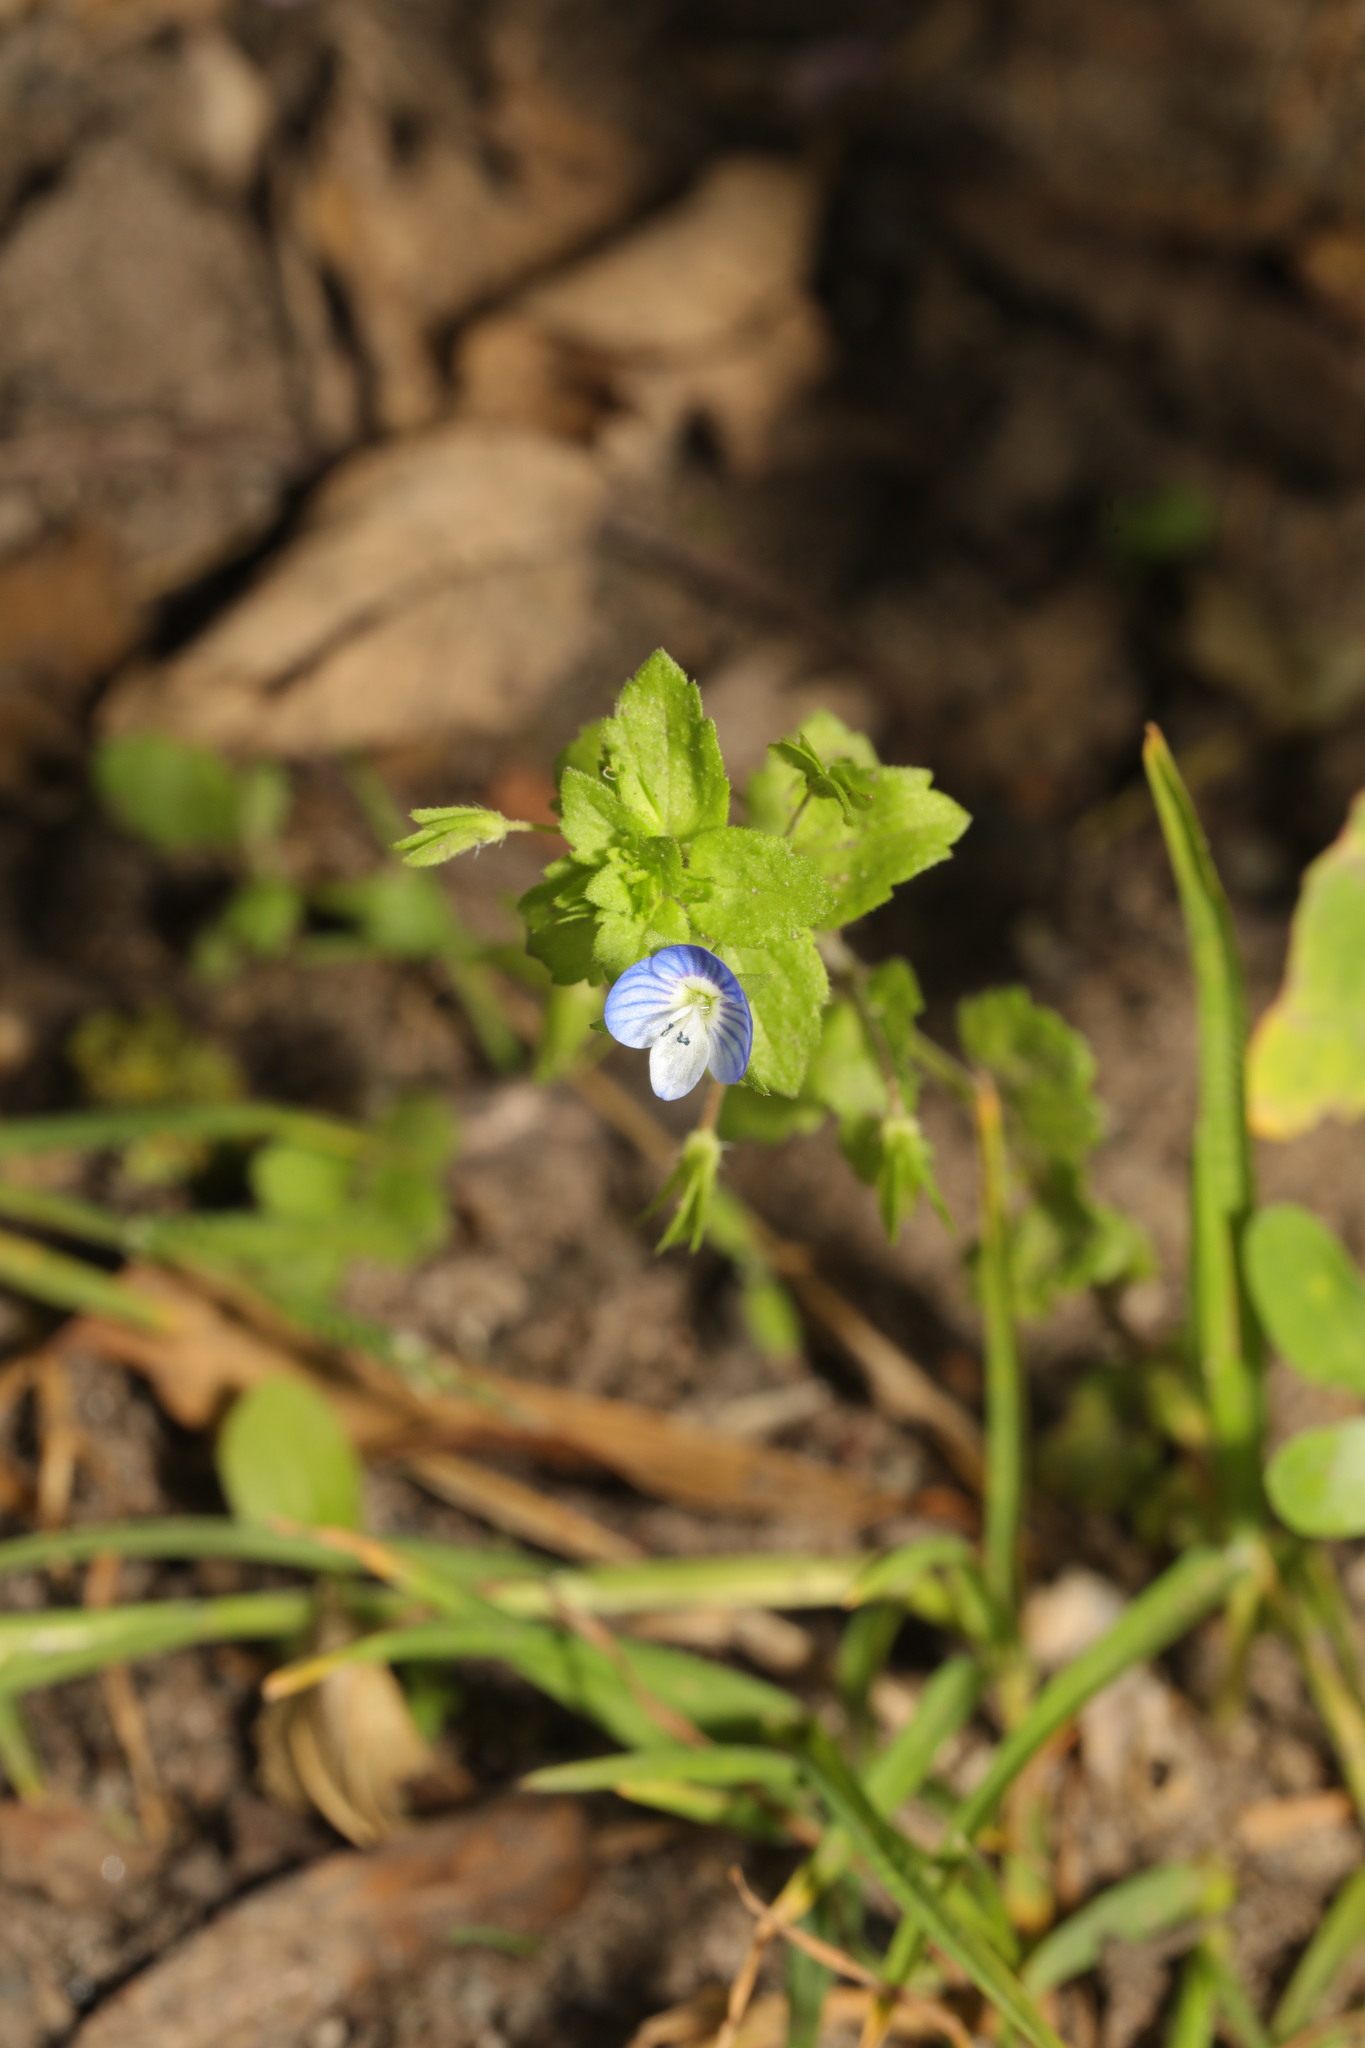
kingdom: Plantae
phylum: Tracheophyta
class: Magnoliopsida
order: Lamiales
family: Plantaginaceae
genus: Veronica
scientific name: Veronica persica
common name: Common field-speedwell
